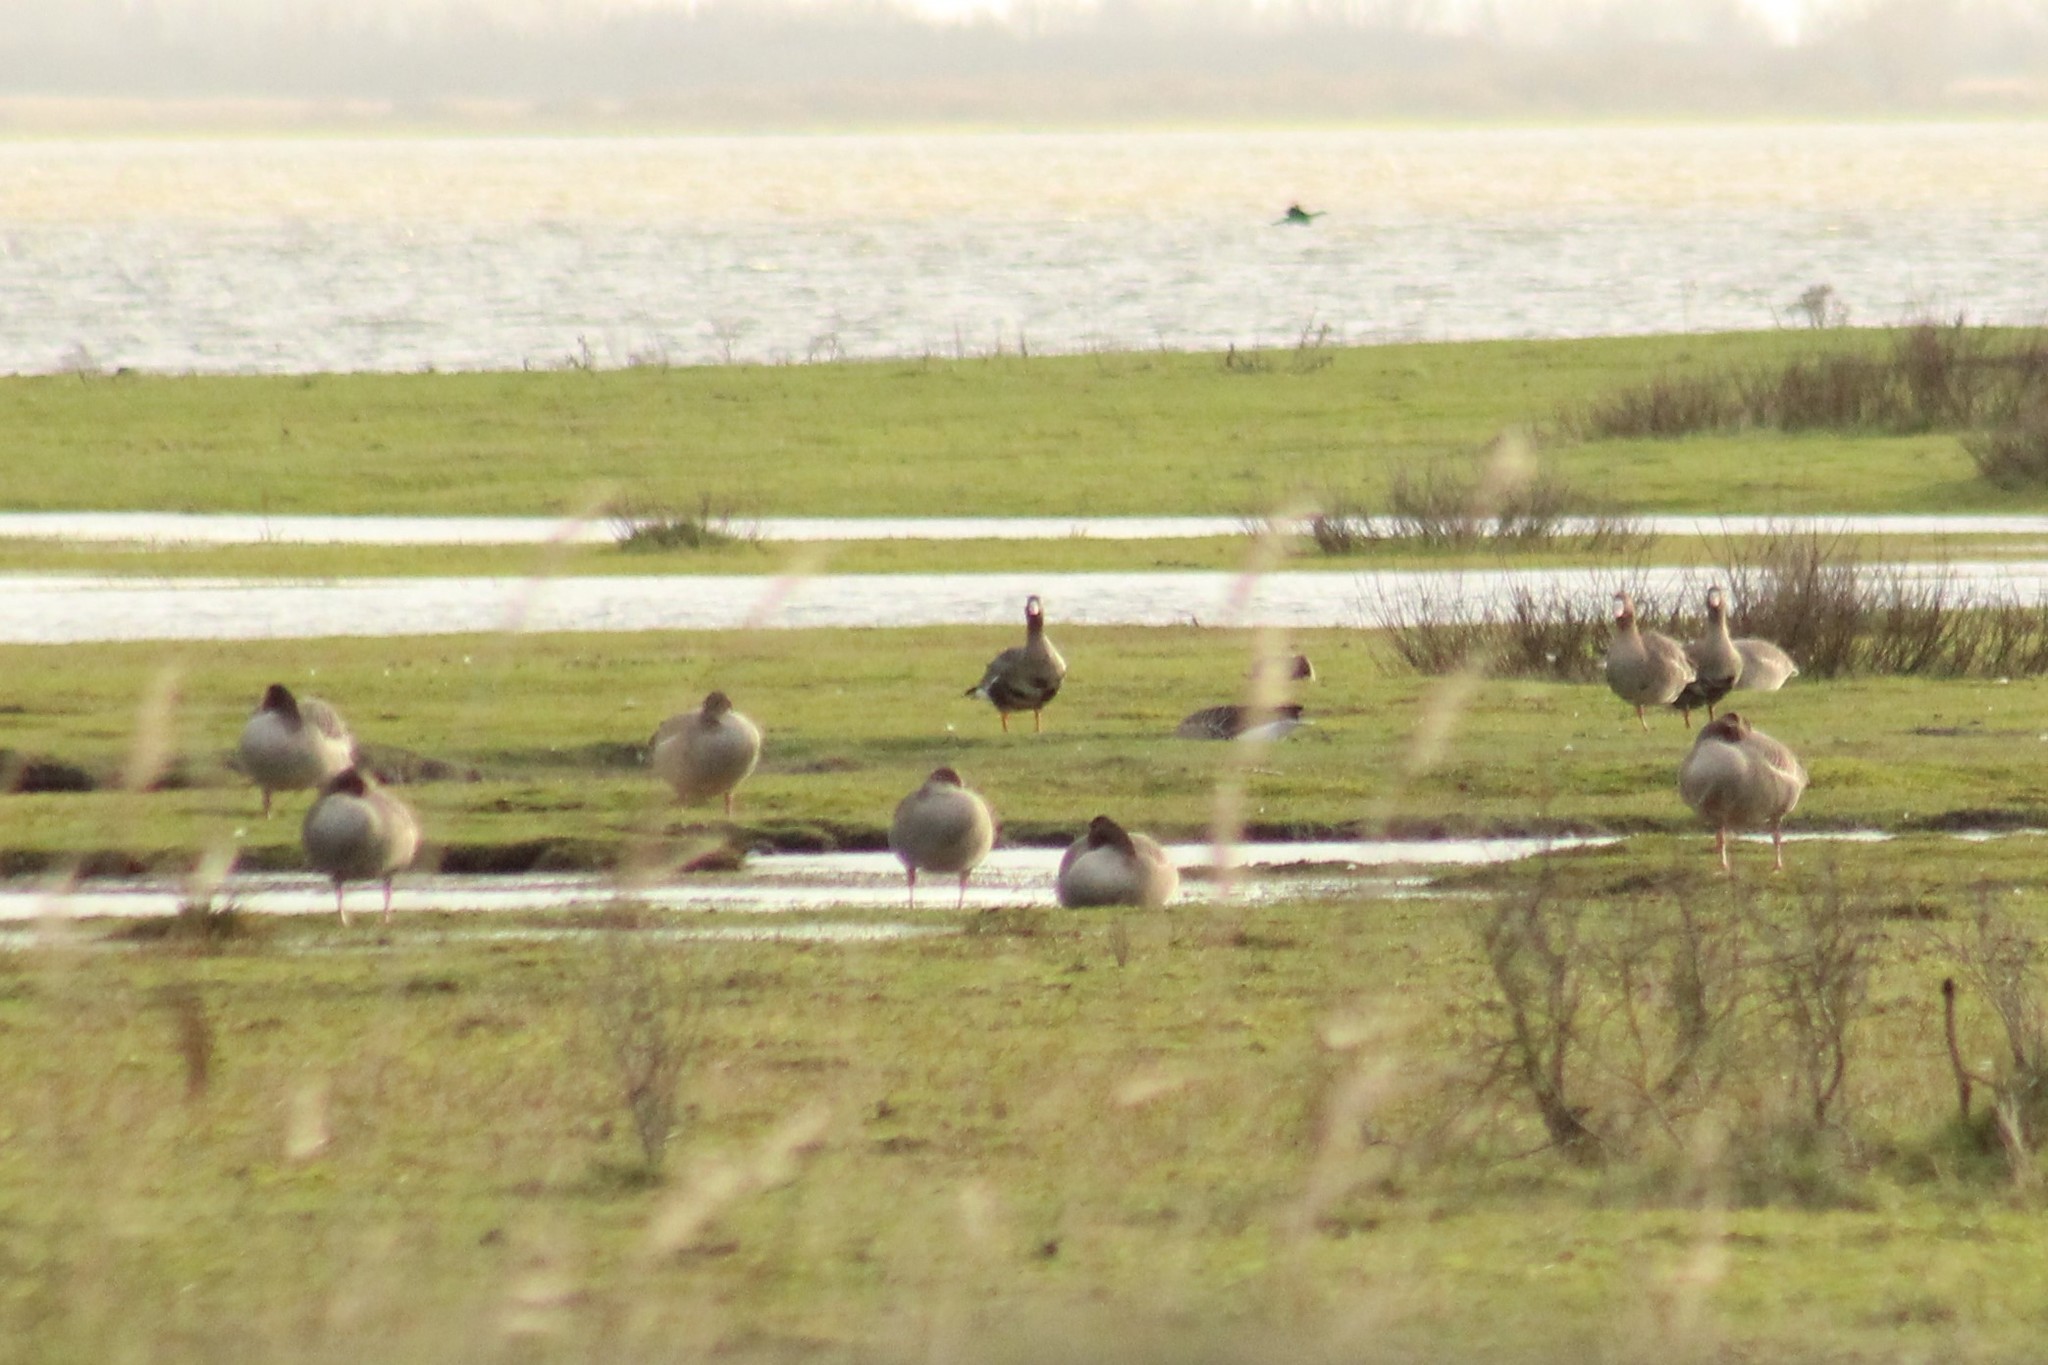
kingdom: Animalia
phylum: Chordata
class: Aves
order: Anseriformes
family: Anatidae
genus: Anser
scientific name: Anser albifrons
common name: Greater white-fronted goose
